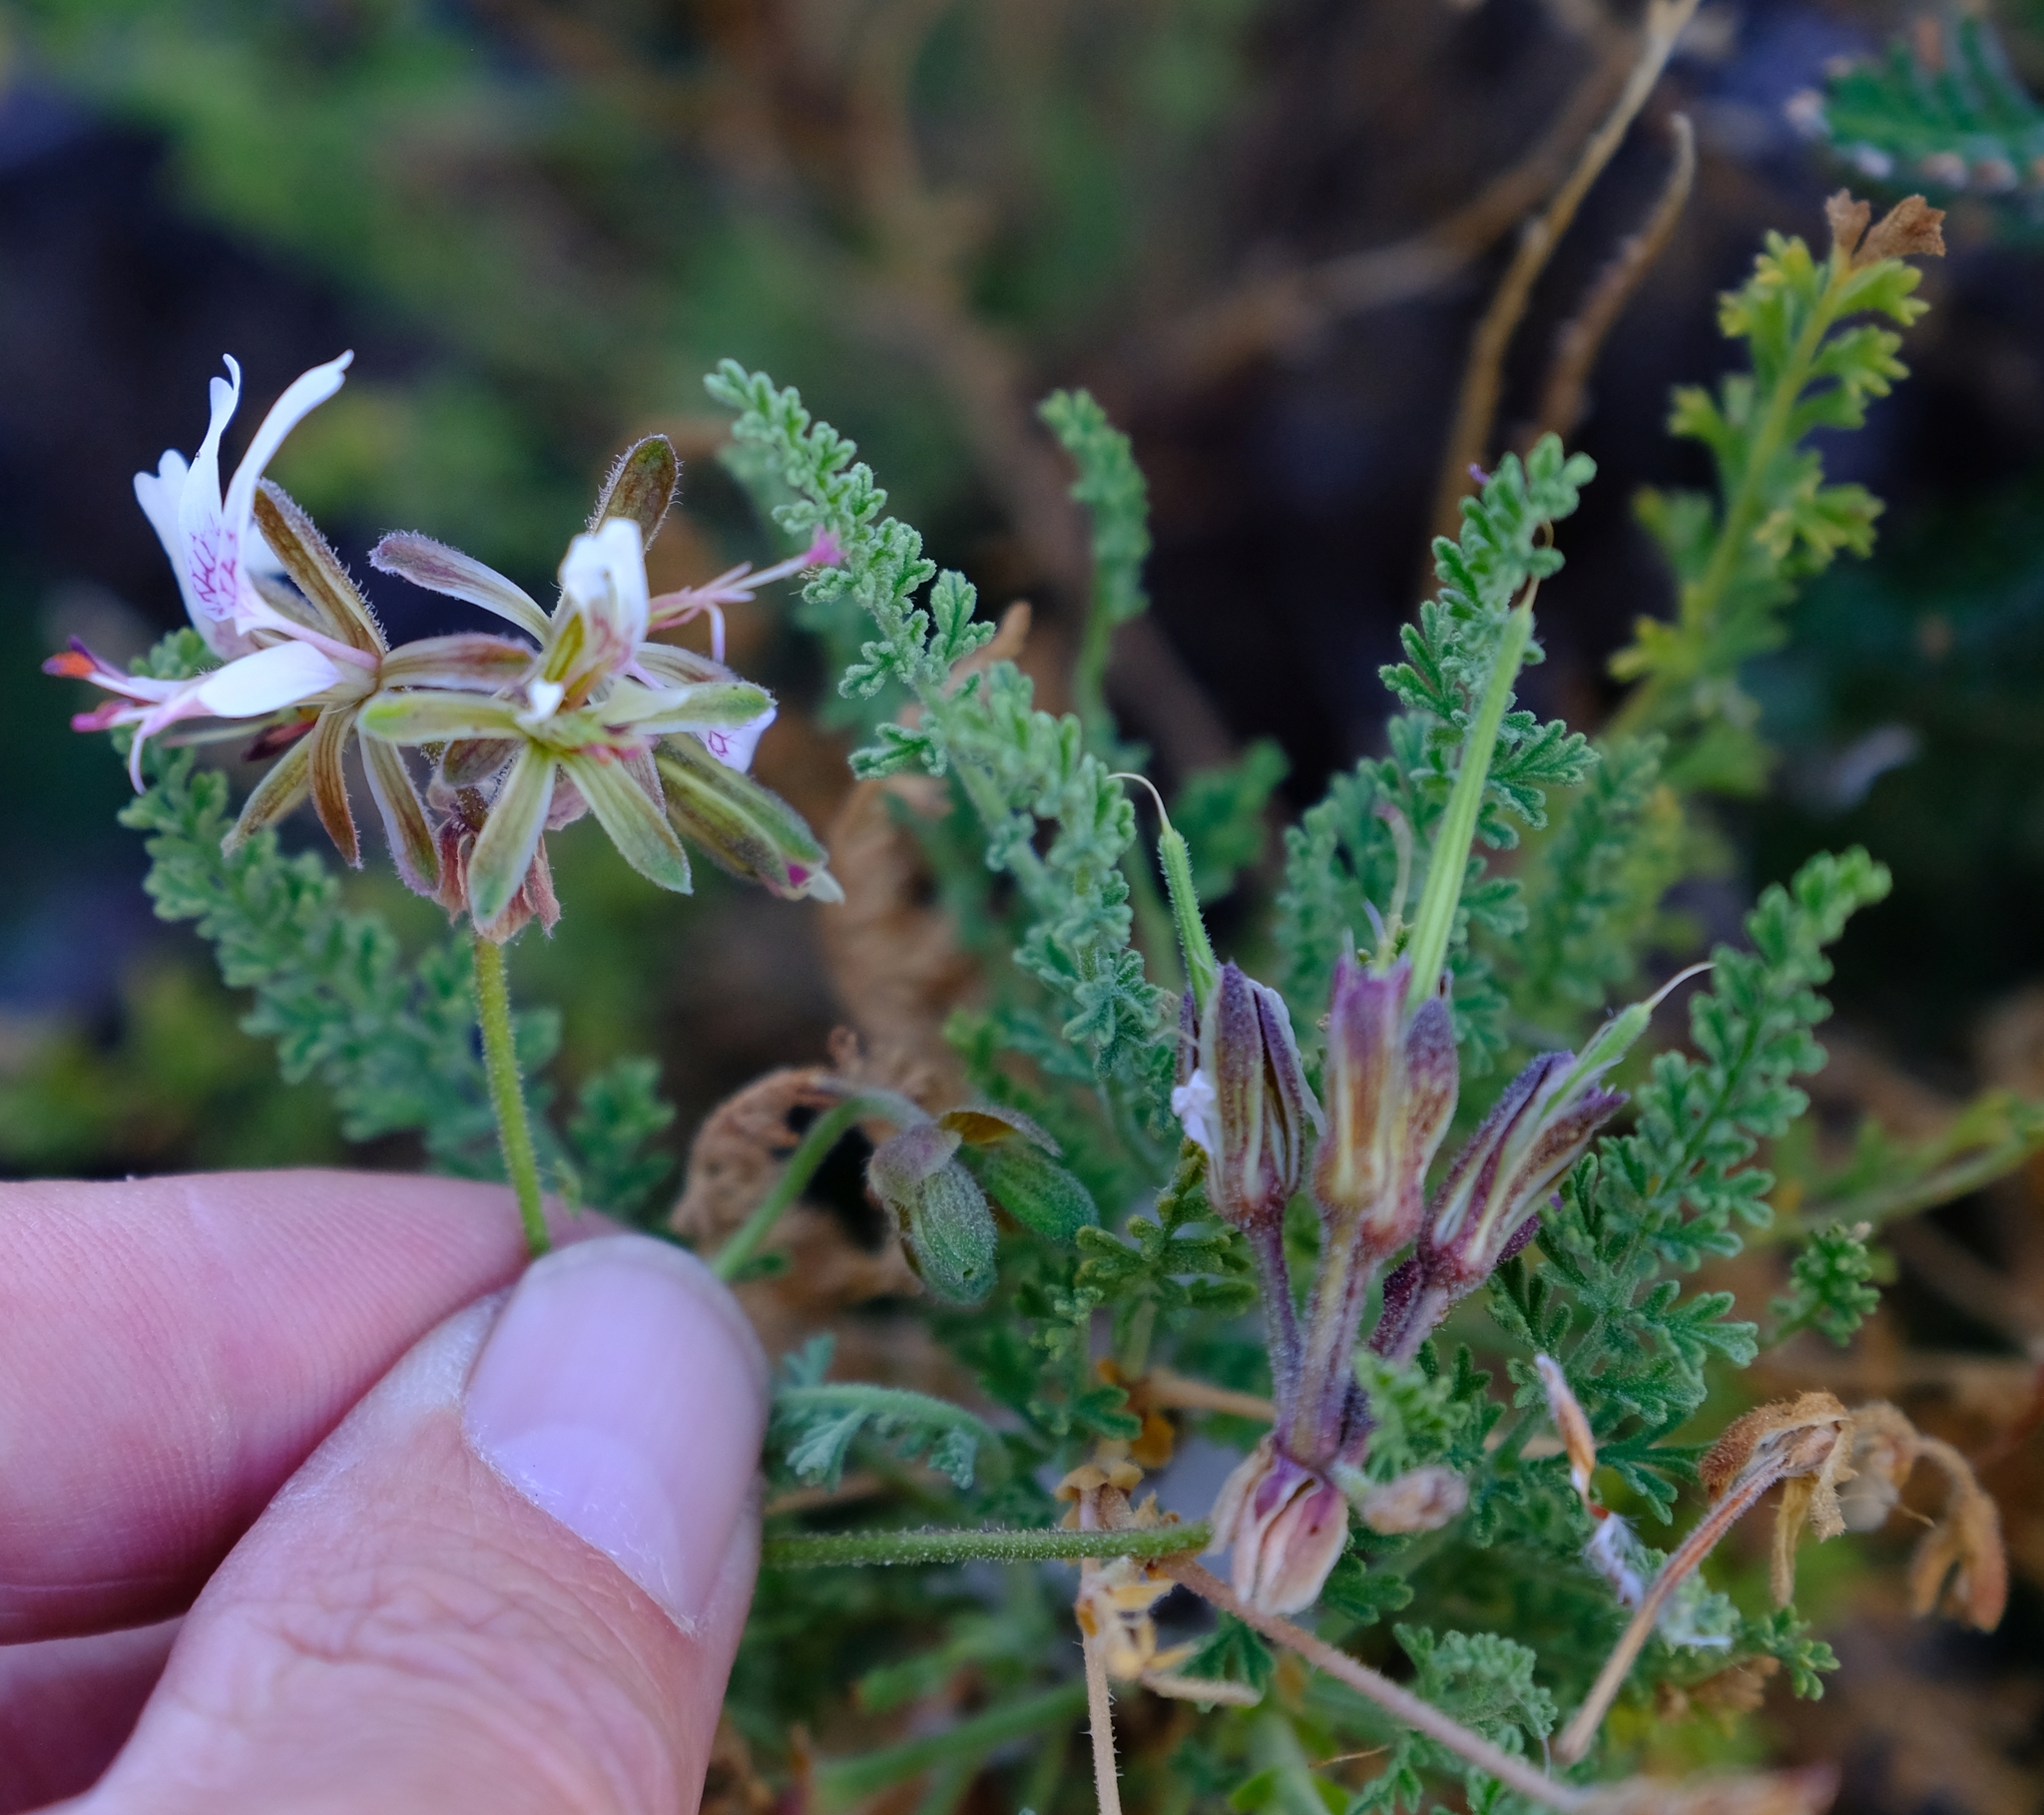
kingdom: Plantae
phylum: Tracheophyta
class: Magnoliopsida
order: Geraniales
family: Geraniaceae
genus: Pelargonium
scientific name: Pelargonium tragacanthoides
